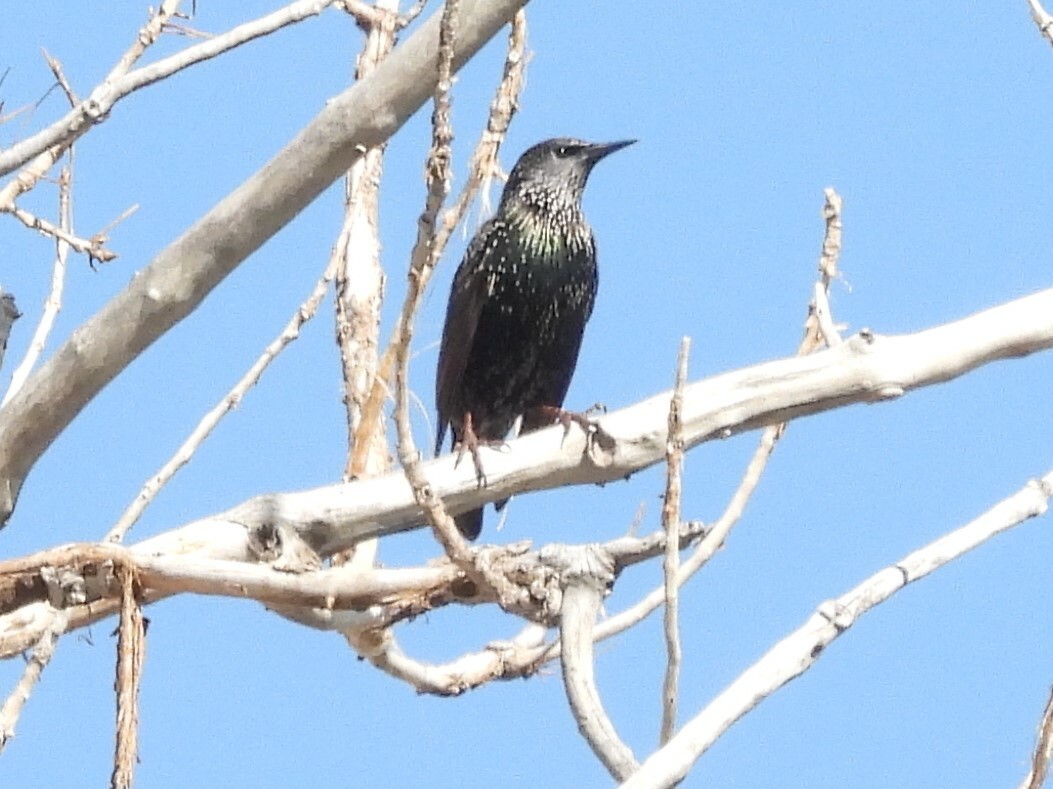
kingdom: Animalia
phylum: Chordata
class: Aves
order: Passeriformes
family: Sturnidae
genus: Sturnus
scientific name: Sturnus vulgaris
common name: Common starling
